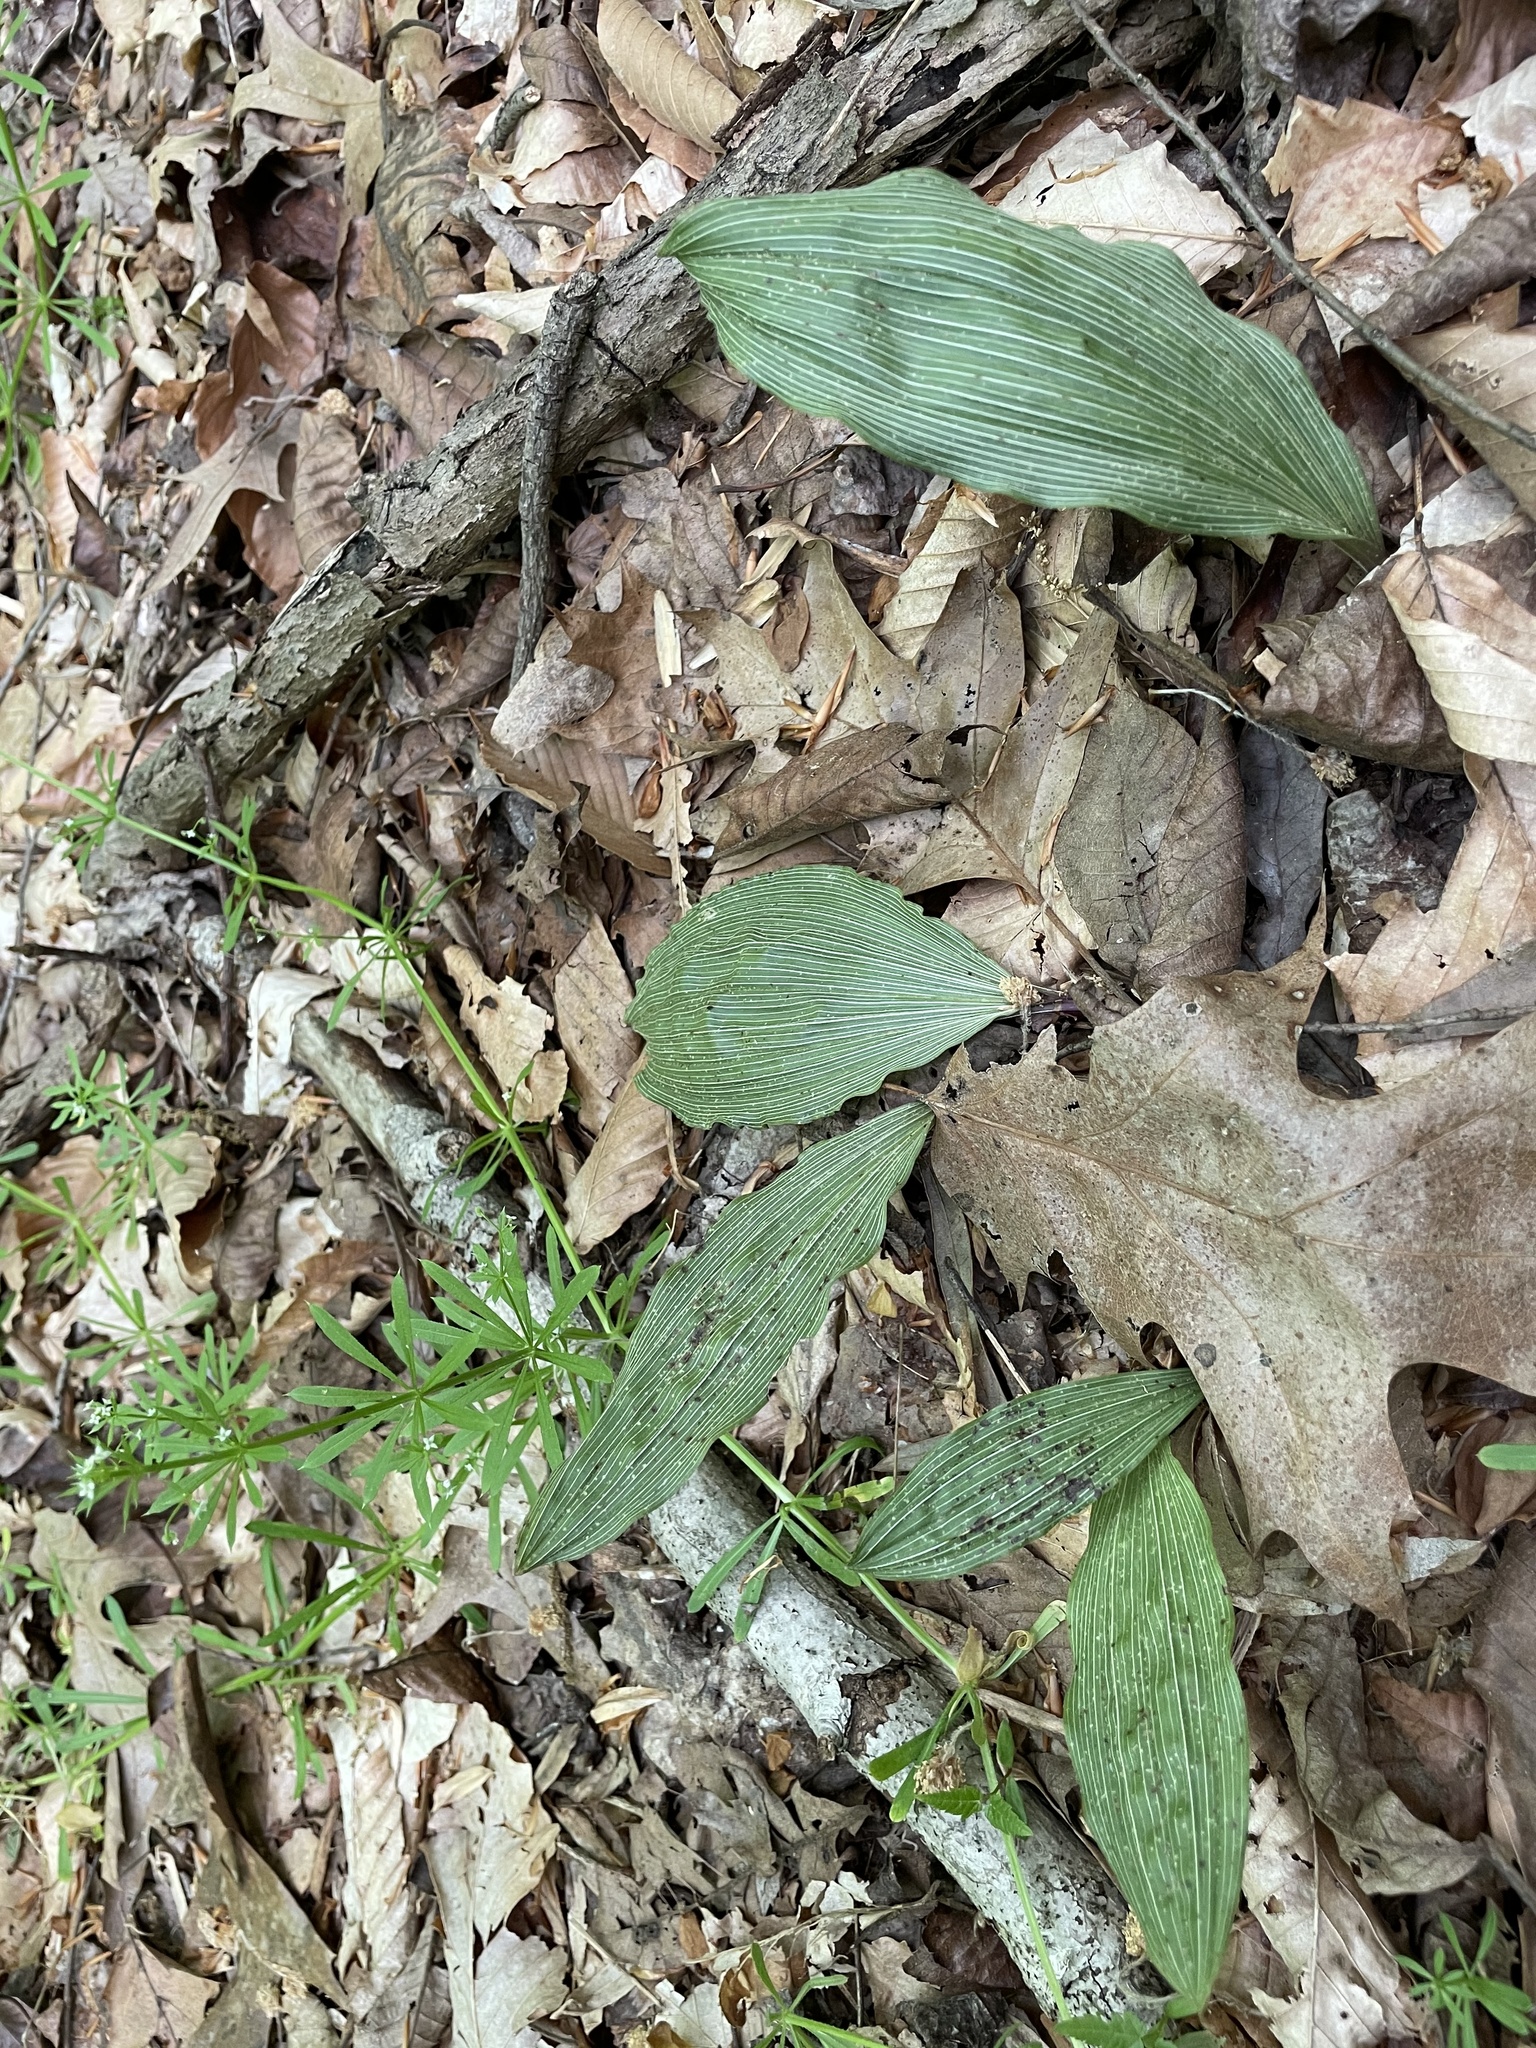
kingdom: Plantae
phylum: Tracheophyta
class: Liliopsida
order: Asparagales
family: Orchidaceae
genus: Aplectrum
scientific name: Aplectrum hyemale
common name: Adam-and-eve
